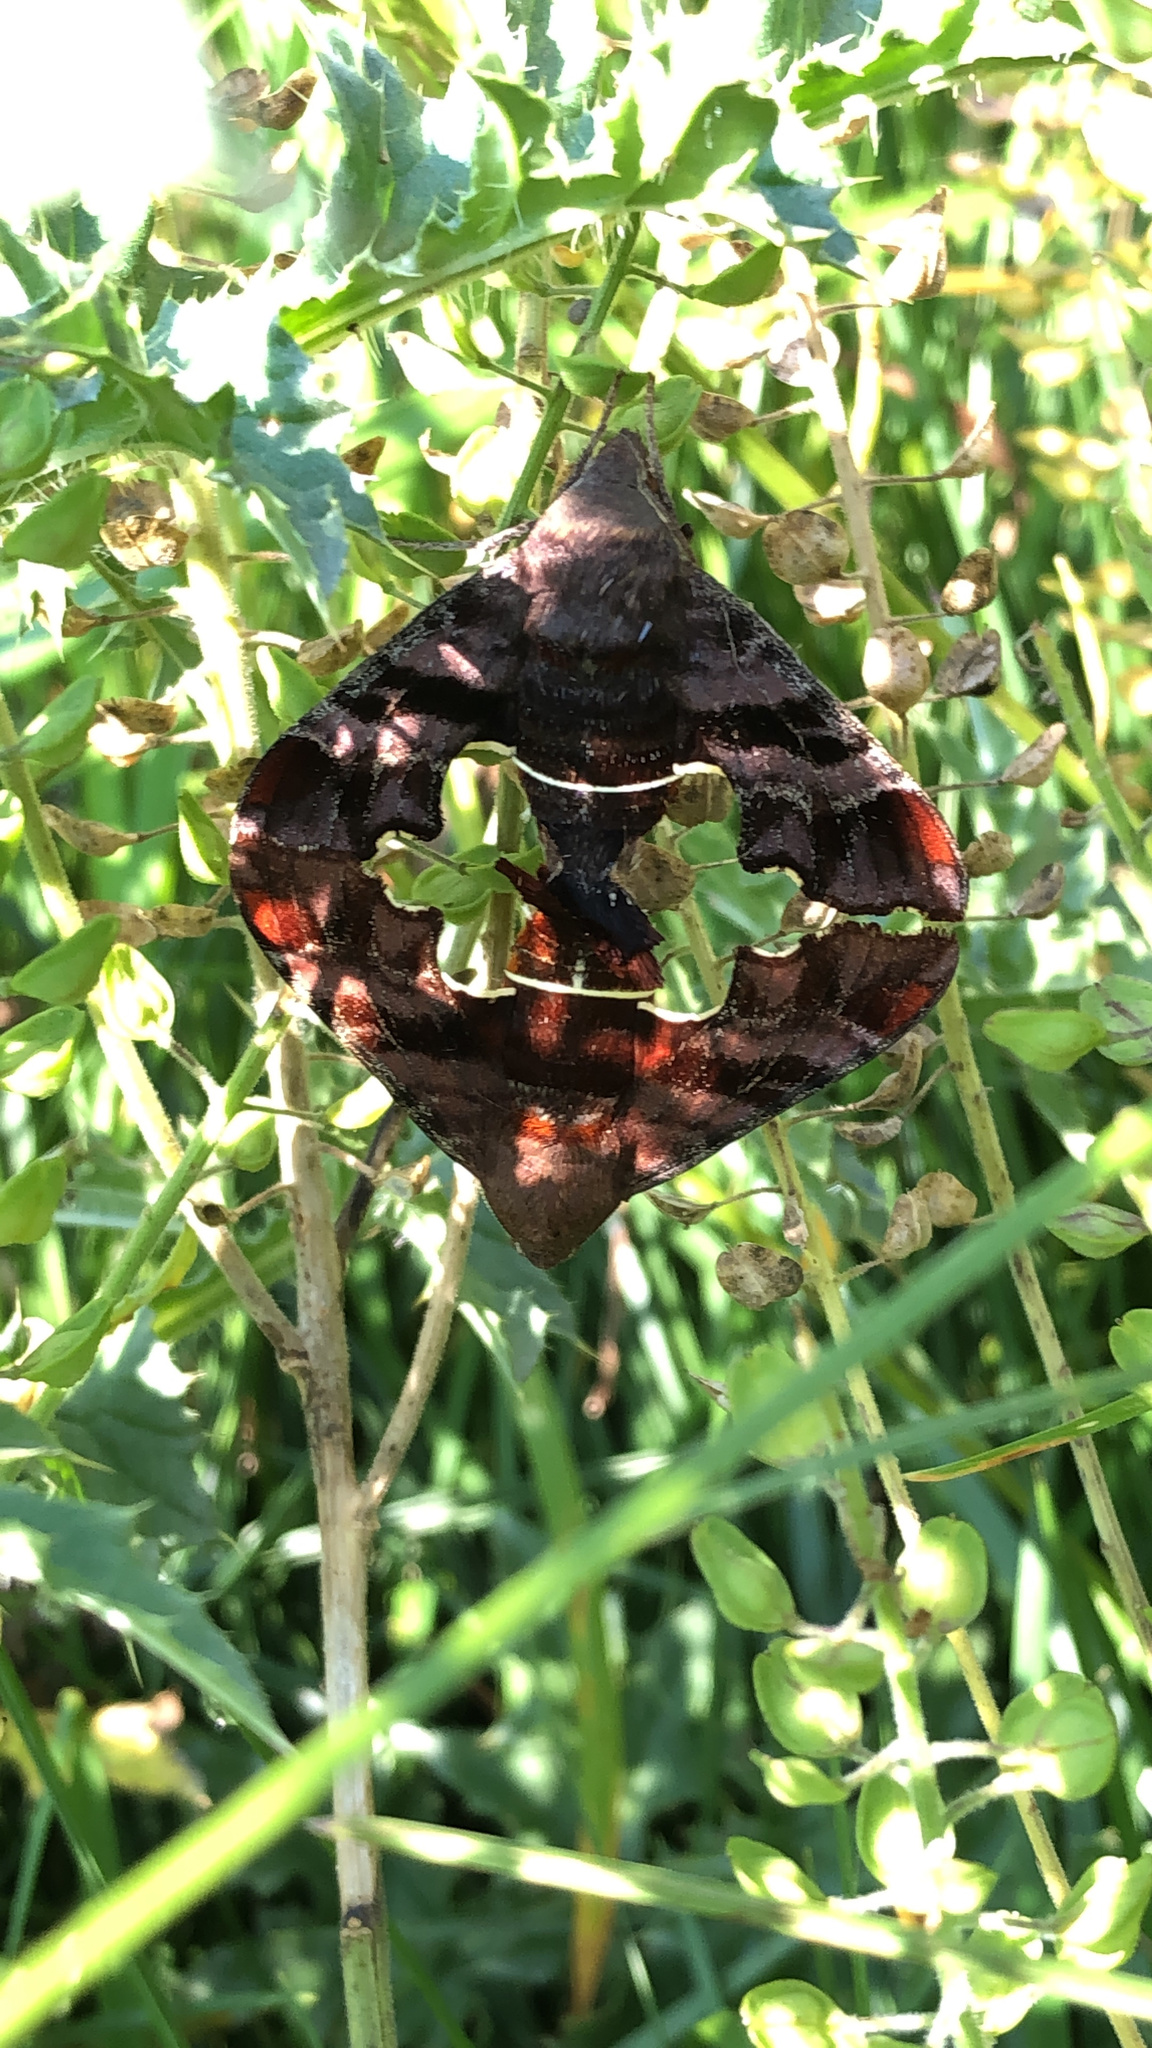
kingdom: Animalia
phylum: Arthropoda
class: Insecta
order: Lepidoptera
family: Sphingidae
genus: Amphion
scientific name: Amphion floridensis
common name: Nessus sphinx
